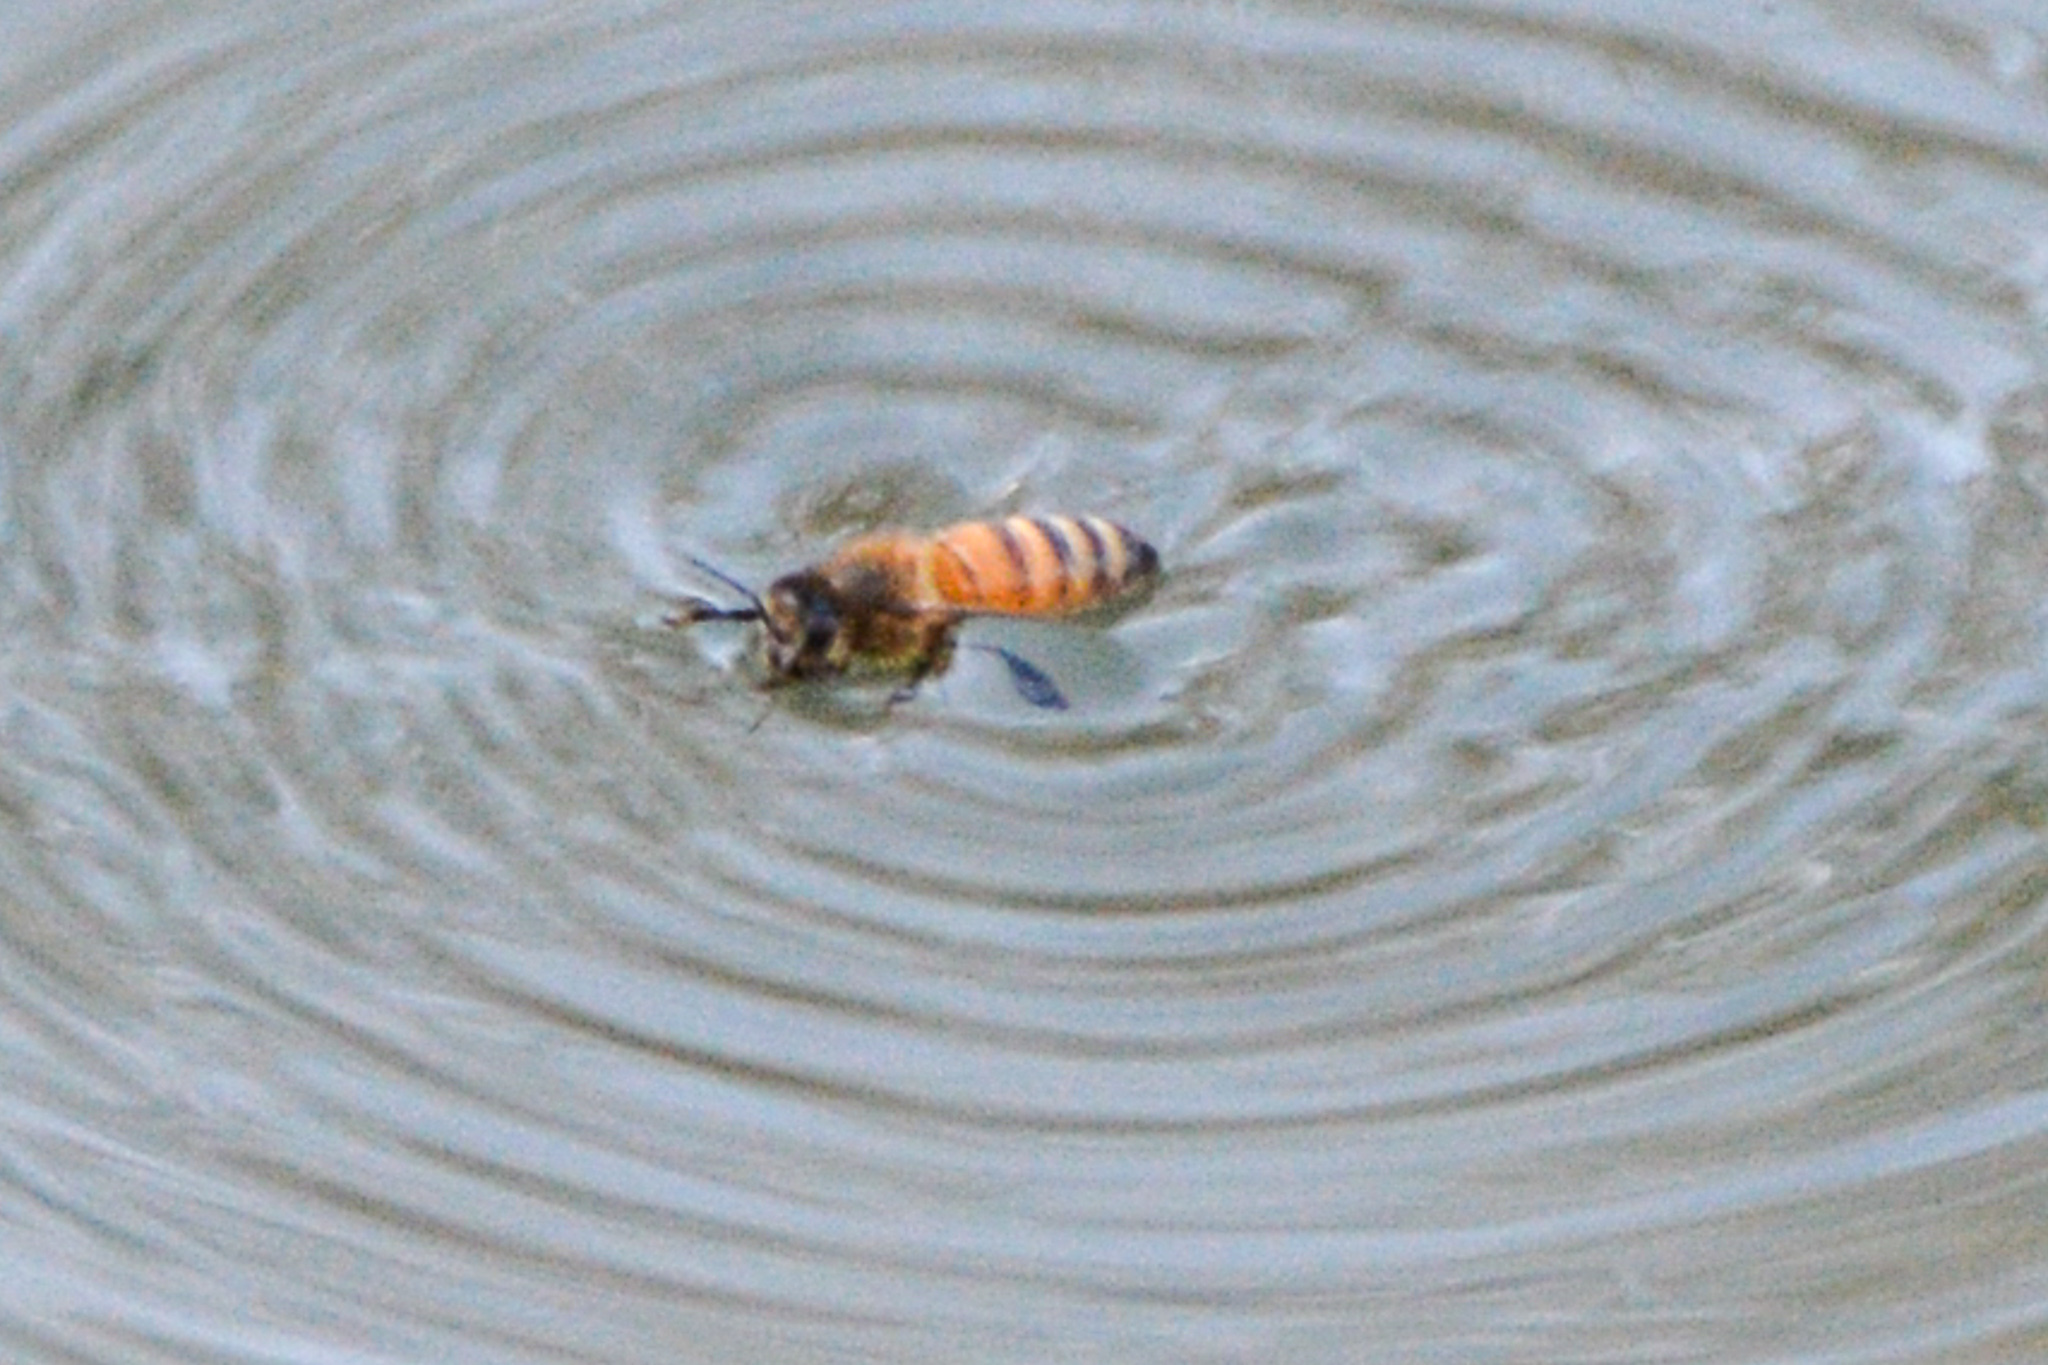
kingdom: Animalia
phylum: Arthropoda
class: Insecta
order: Hymenoptera
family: Apidae
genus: Apis
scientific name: Apis mellifera
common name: Honey bee
